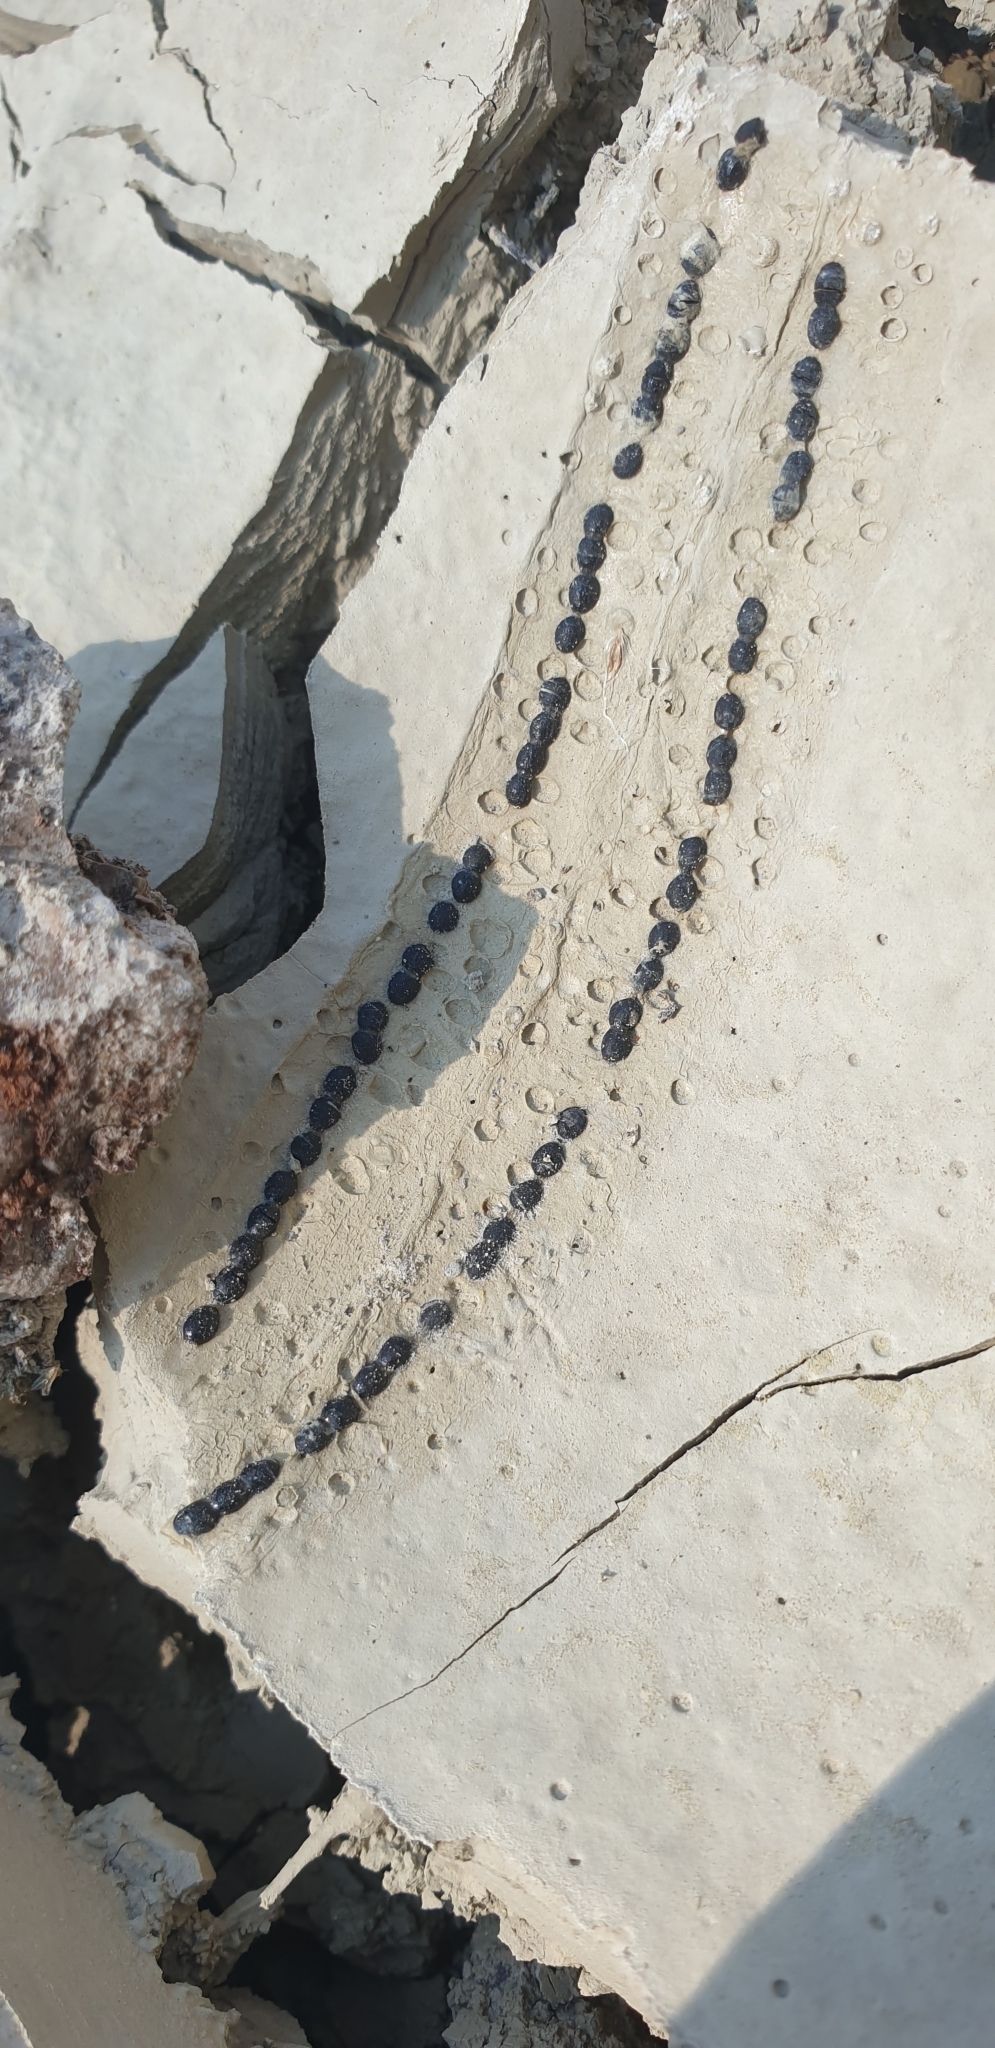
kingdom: Animalia
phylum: Chordata
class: Amphibia
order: Anura
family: Bufonidae
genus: Epidalea
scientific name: Epidalea calamita
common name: Natterjack toad
